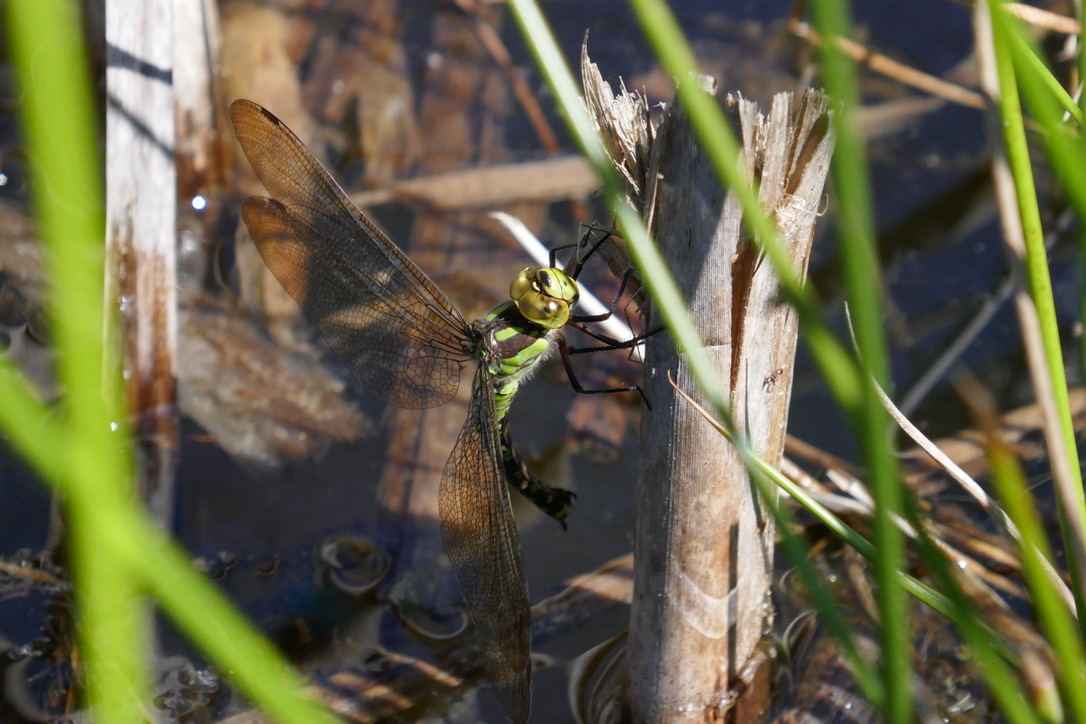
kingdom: Animalia
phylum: Arthropoda
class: Insecta
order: Odonata
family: Aeshnidae
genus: Aeshna
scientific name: Aeshna cyanea
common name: Southern hawker
